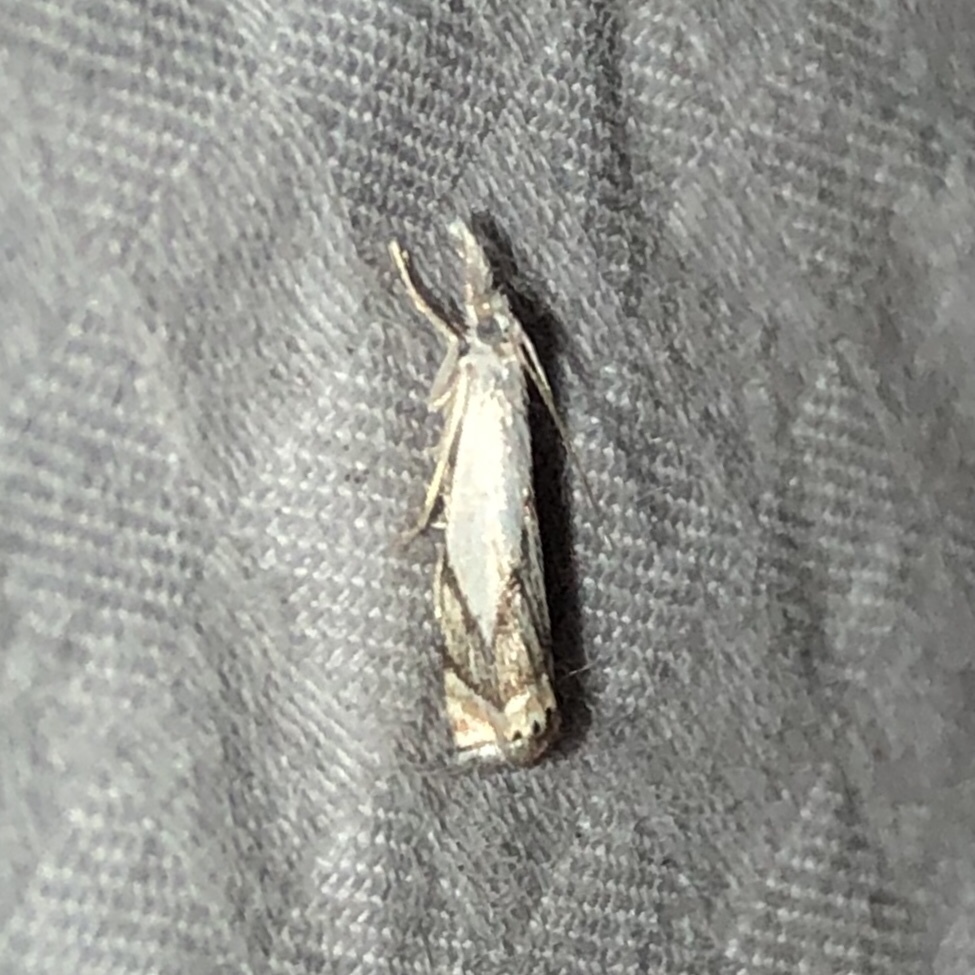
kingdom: Animalia
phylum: Arthropoda
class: Insecta
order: Lepidoptera
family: Crambidae
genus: Crambus
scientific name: Crambus albellus
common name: Small white grass-veneer
